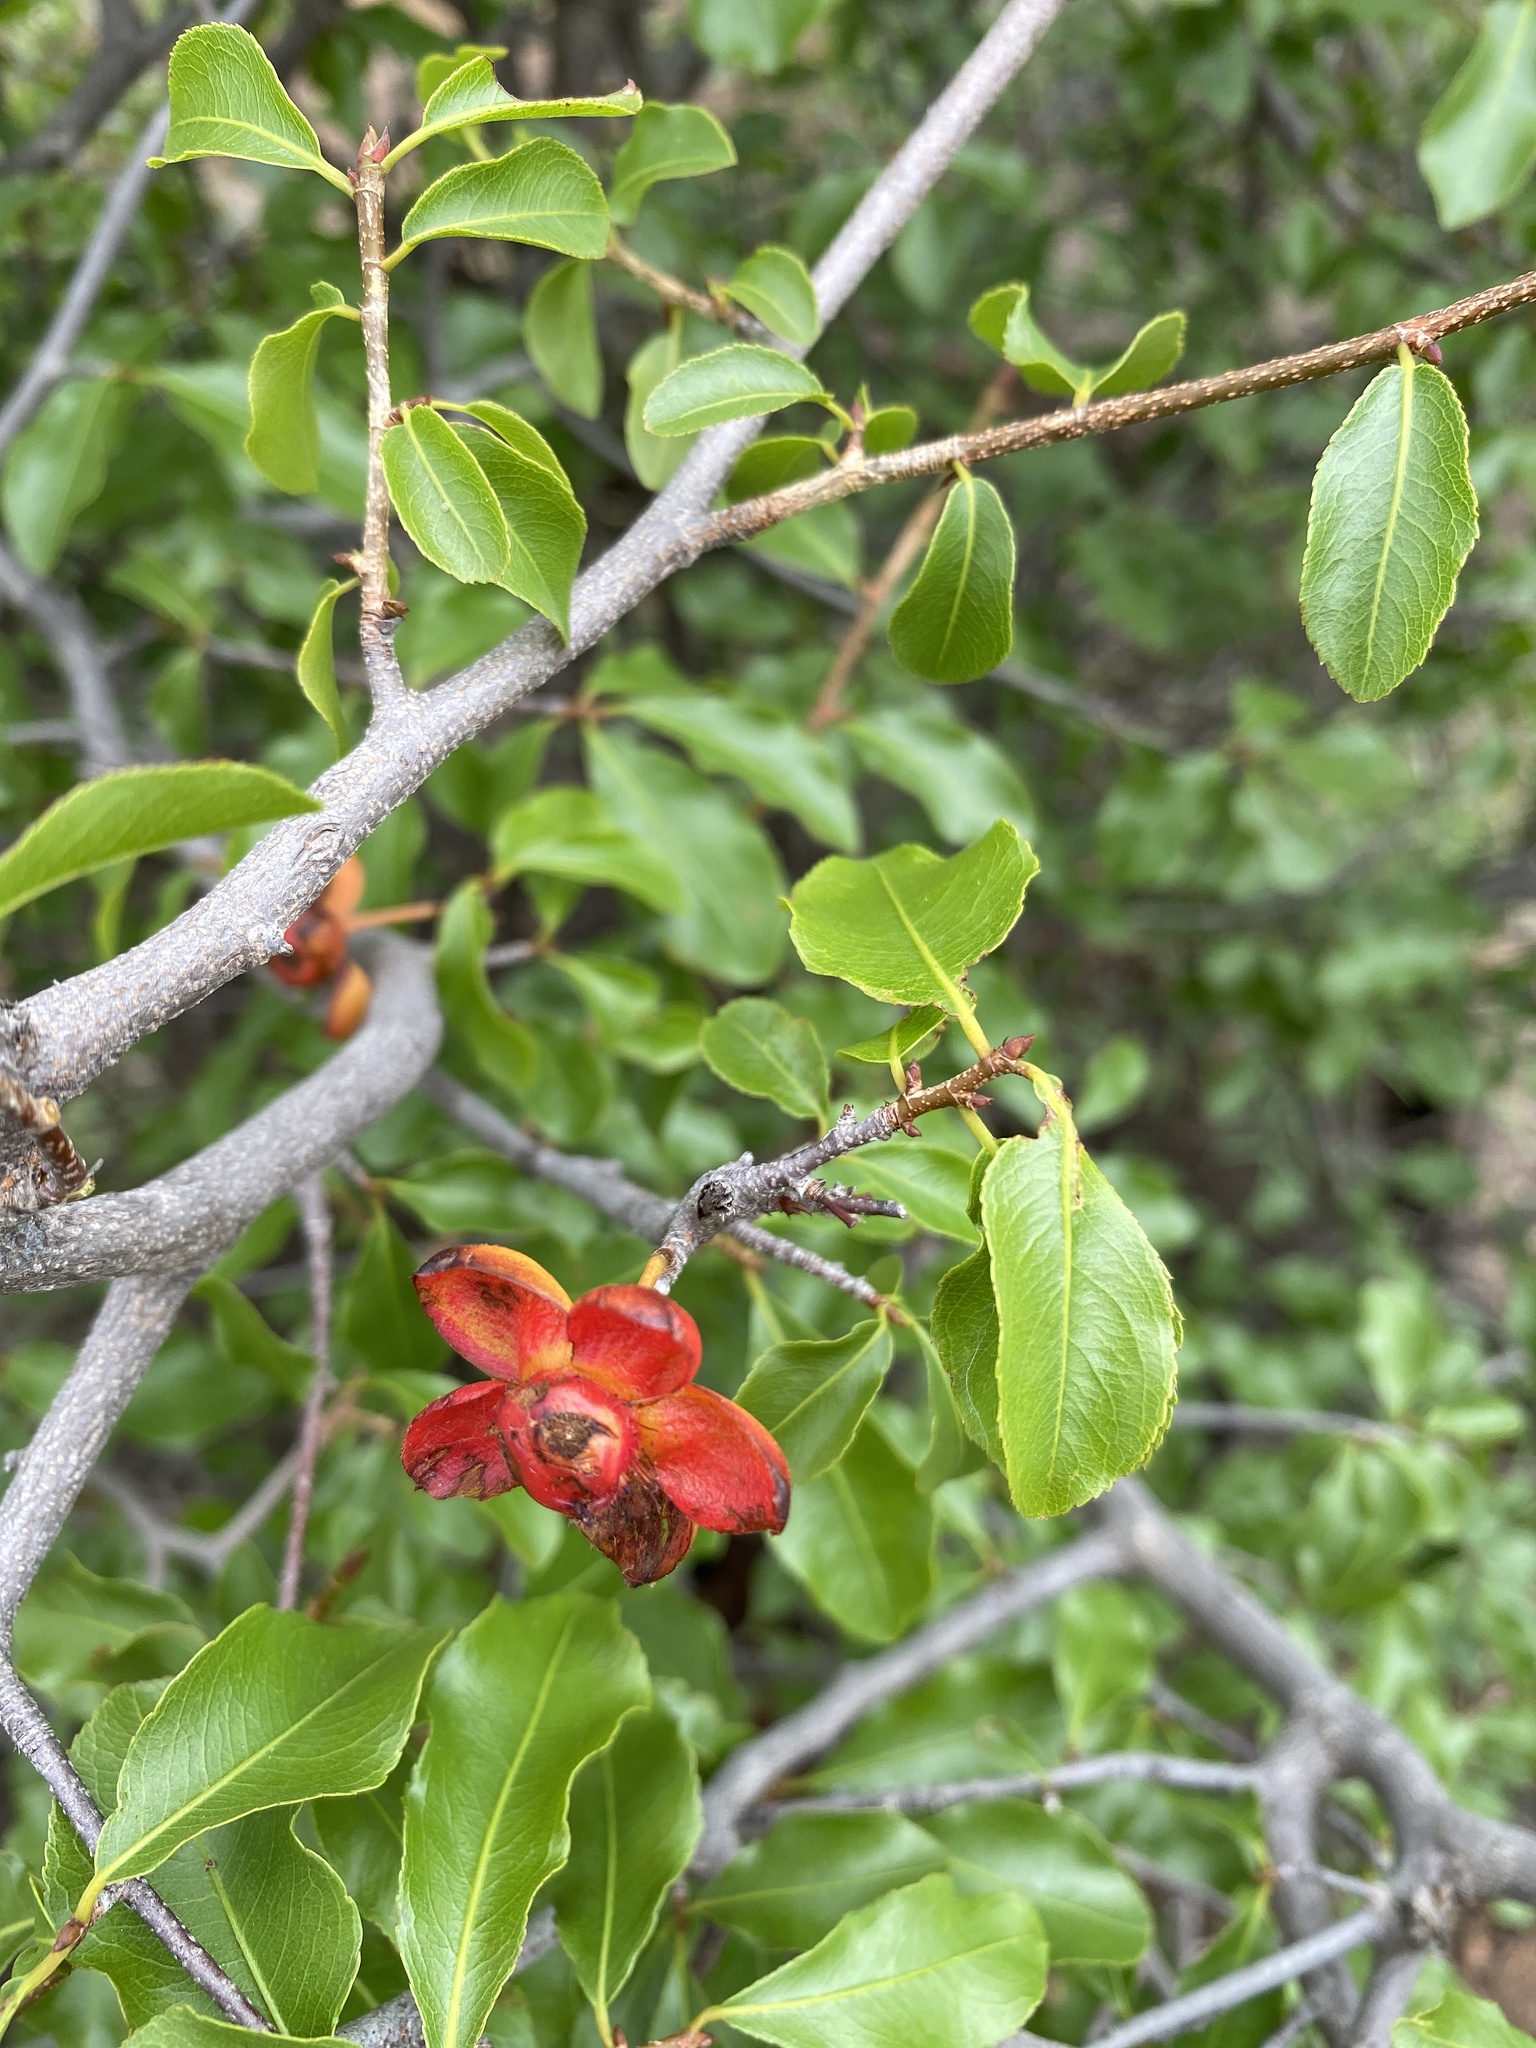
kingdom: Plantae
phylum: Tracheophyta
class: Magnoliopsida
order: Malpighiales
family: Ochnaceae
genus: Ochna
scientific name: Ochna inermis
